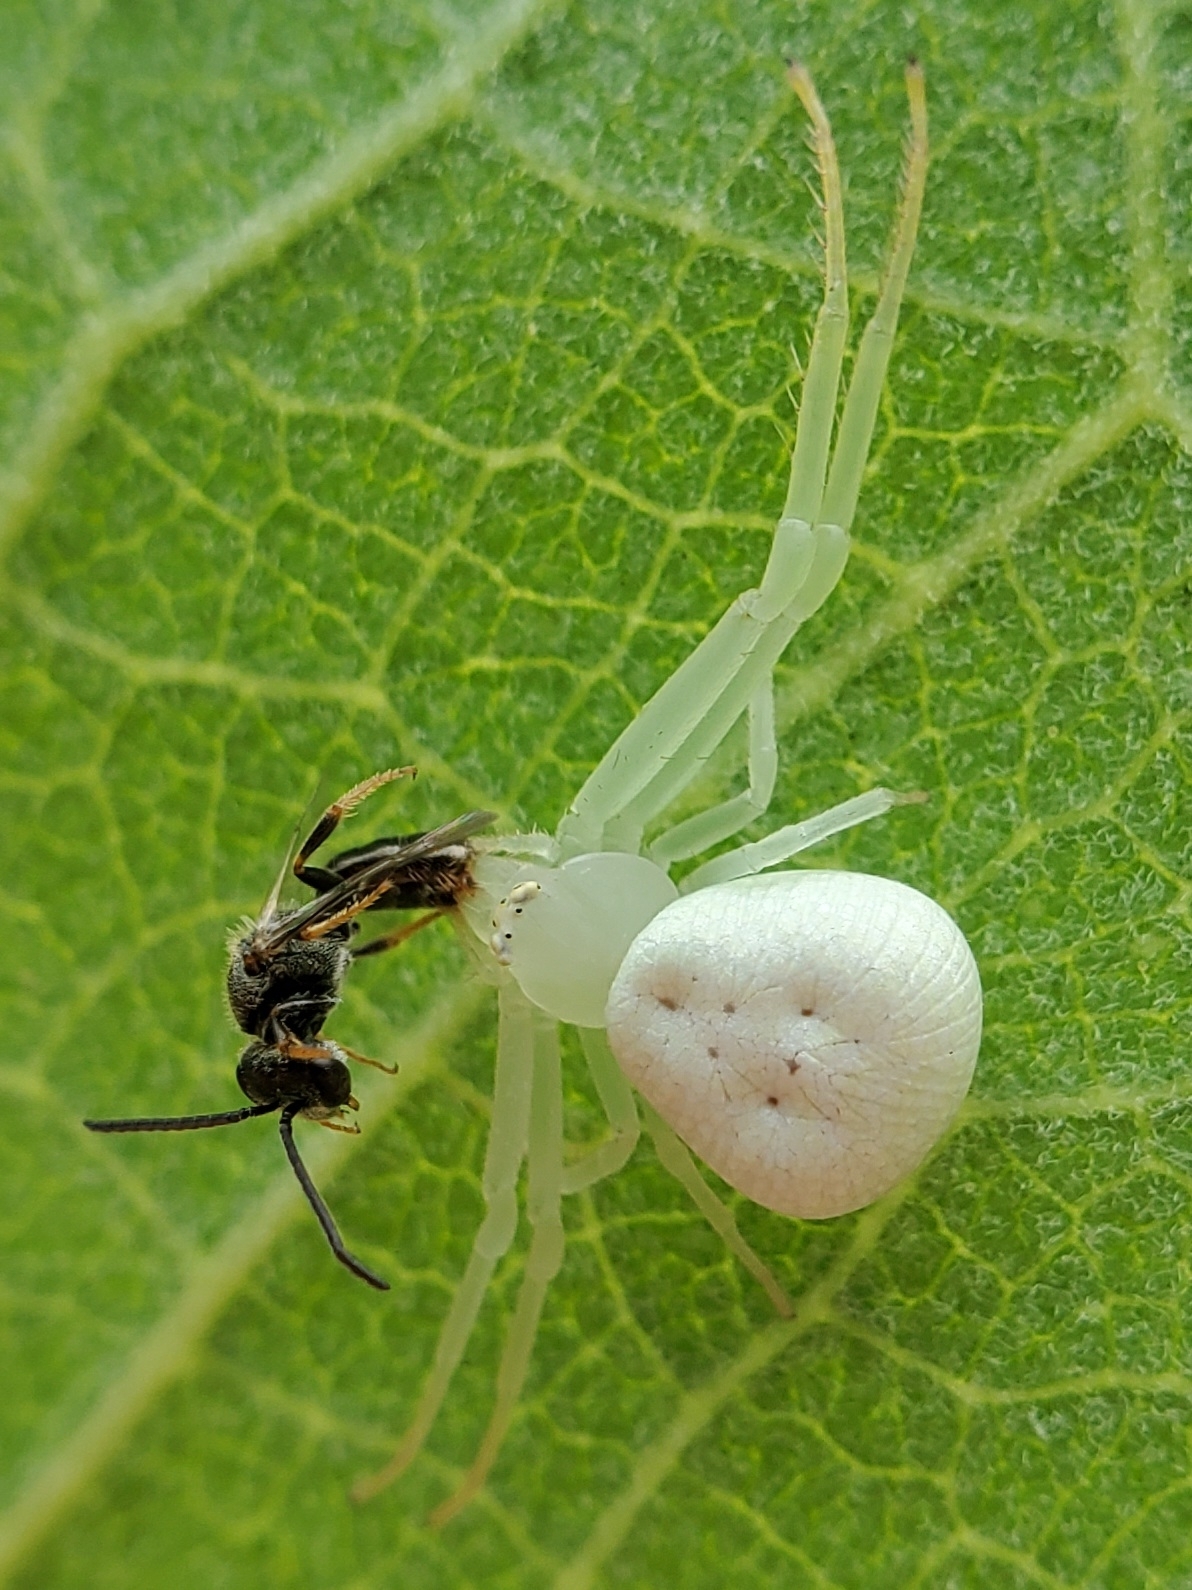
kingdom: Animalia
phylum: Arthropoda
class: Arachnida
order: Araneae
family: Thomisidae
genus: Misumessus
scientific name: Misumessus oblongus
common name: American green crab spider
